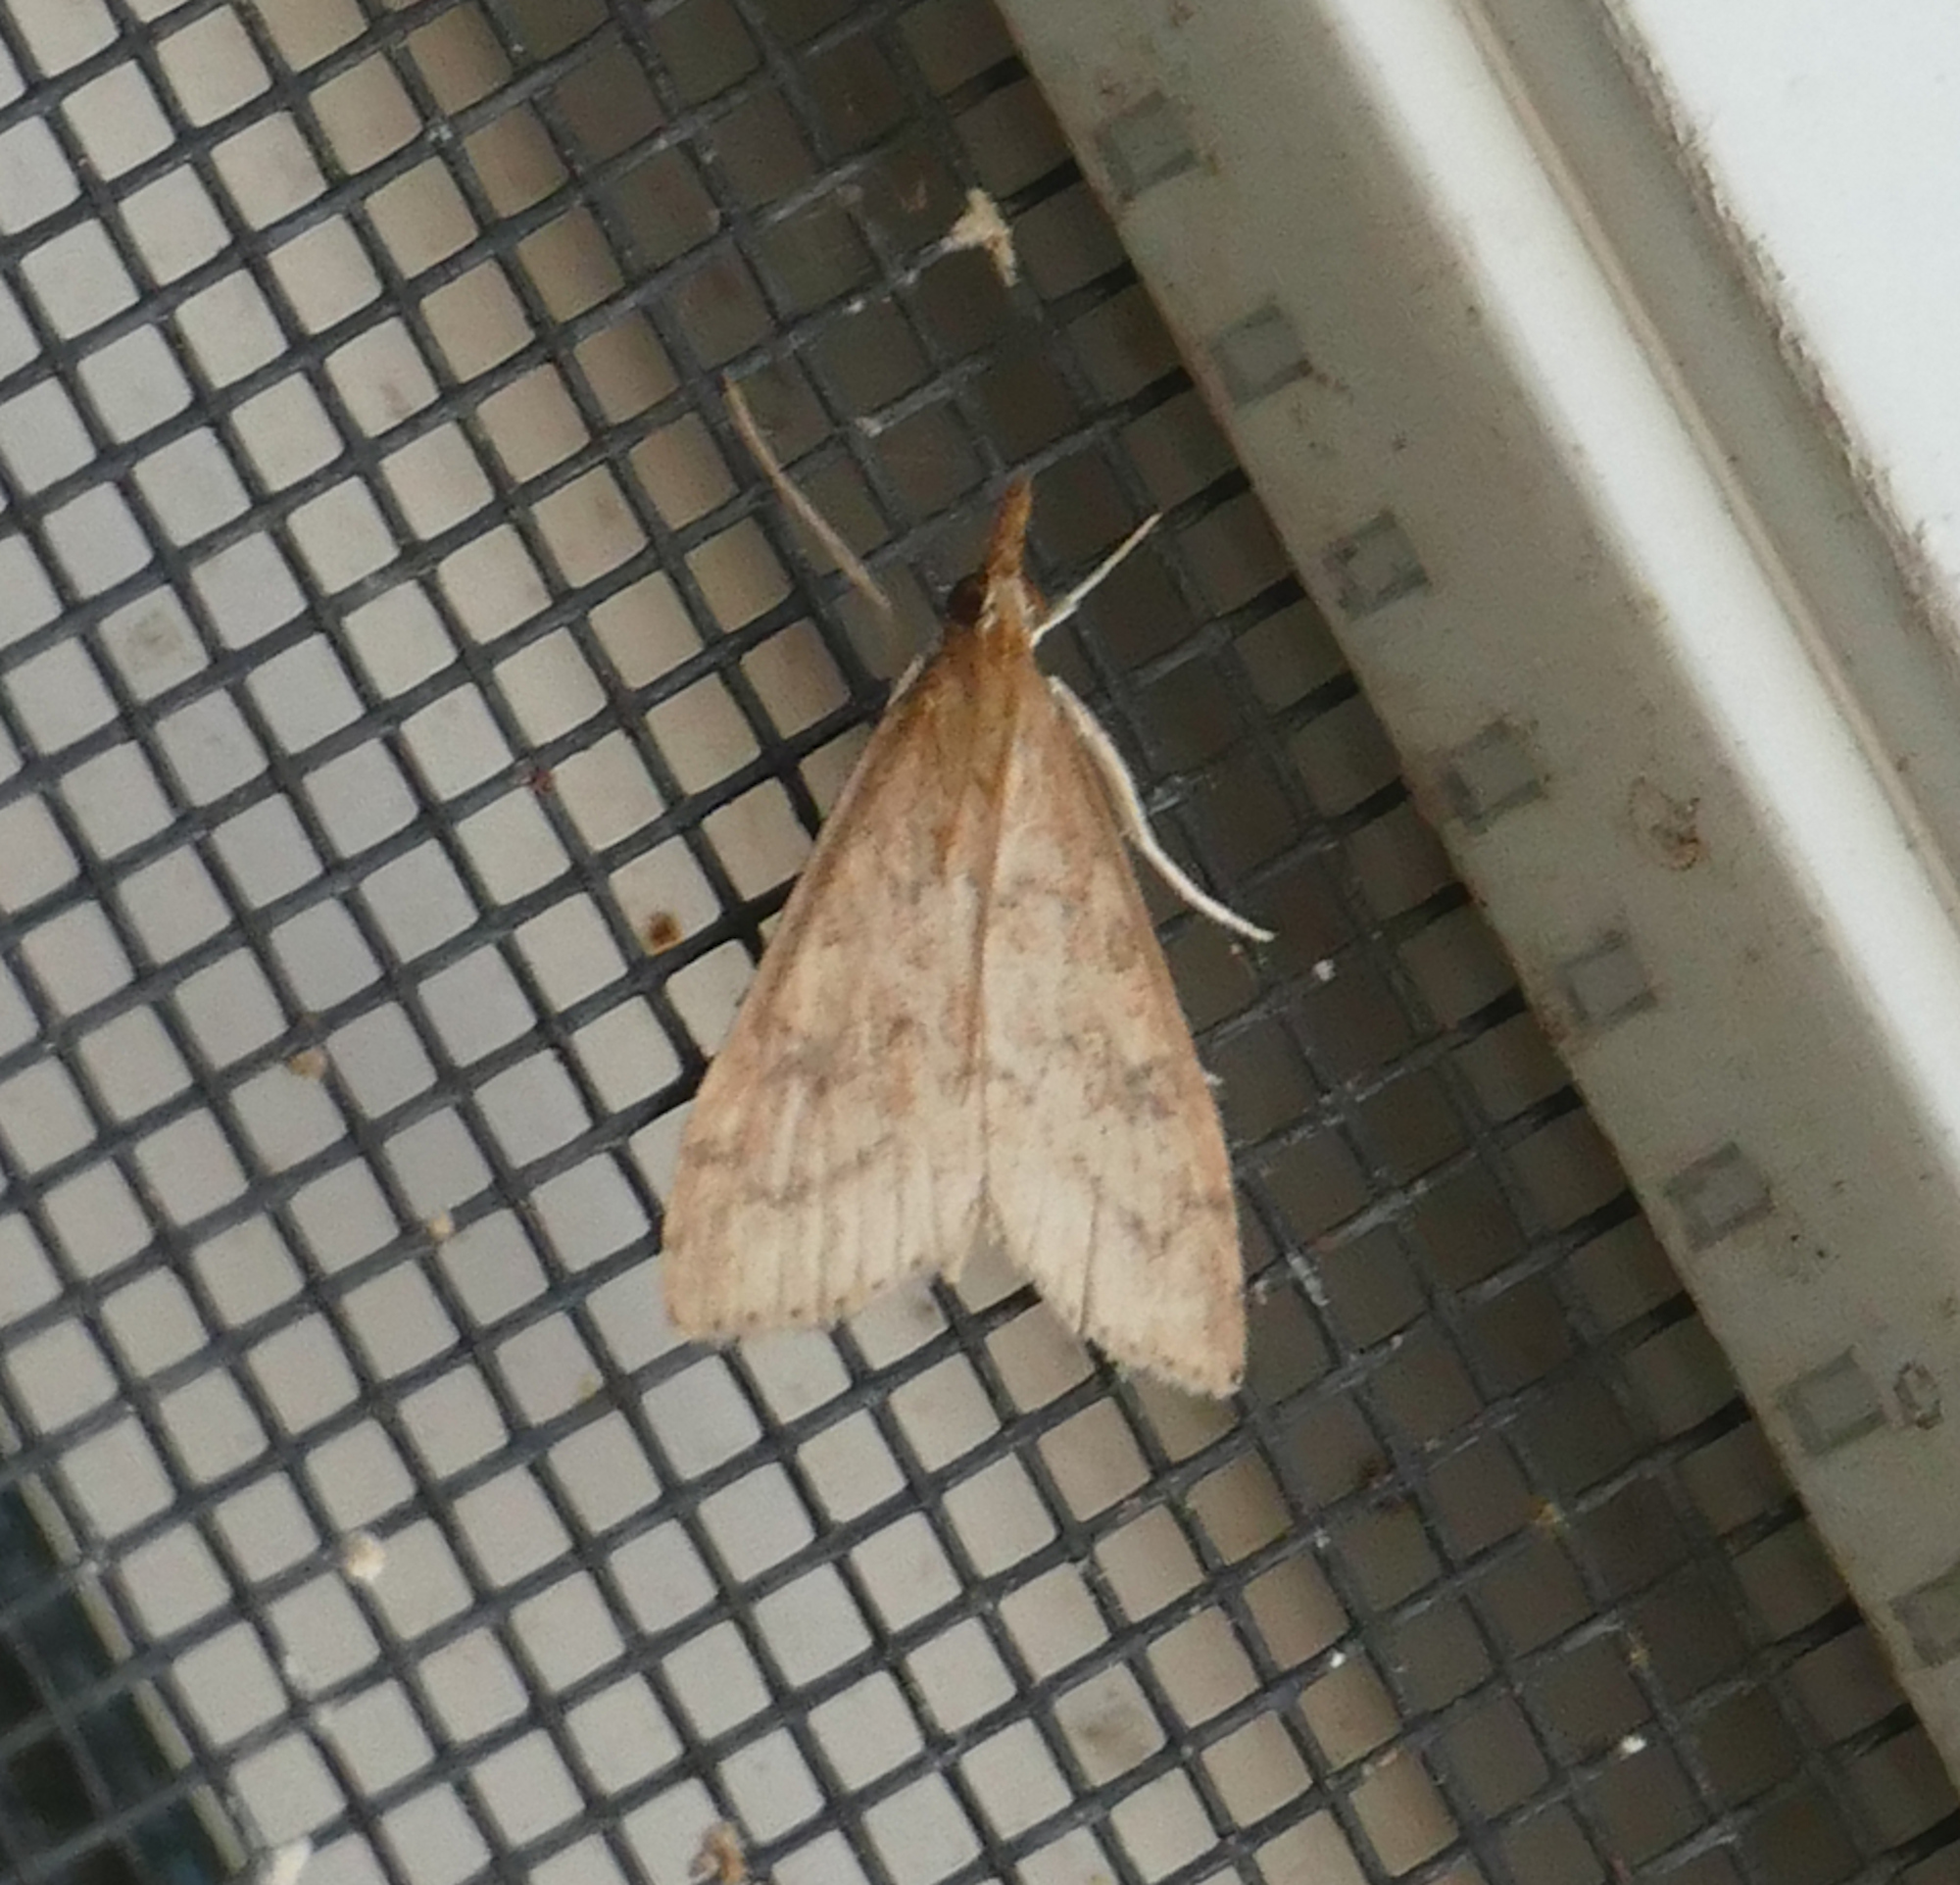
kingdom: Animalia
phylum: Arthropoda
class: Insecta
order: Lepidoptera
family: Crambidae
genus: Udea
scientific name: Udea rubigalis
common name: Celery leaftier moth
